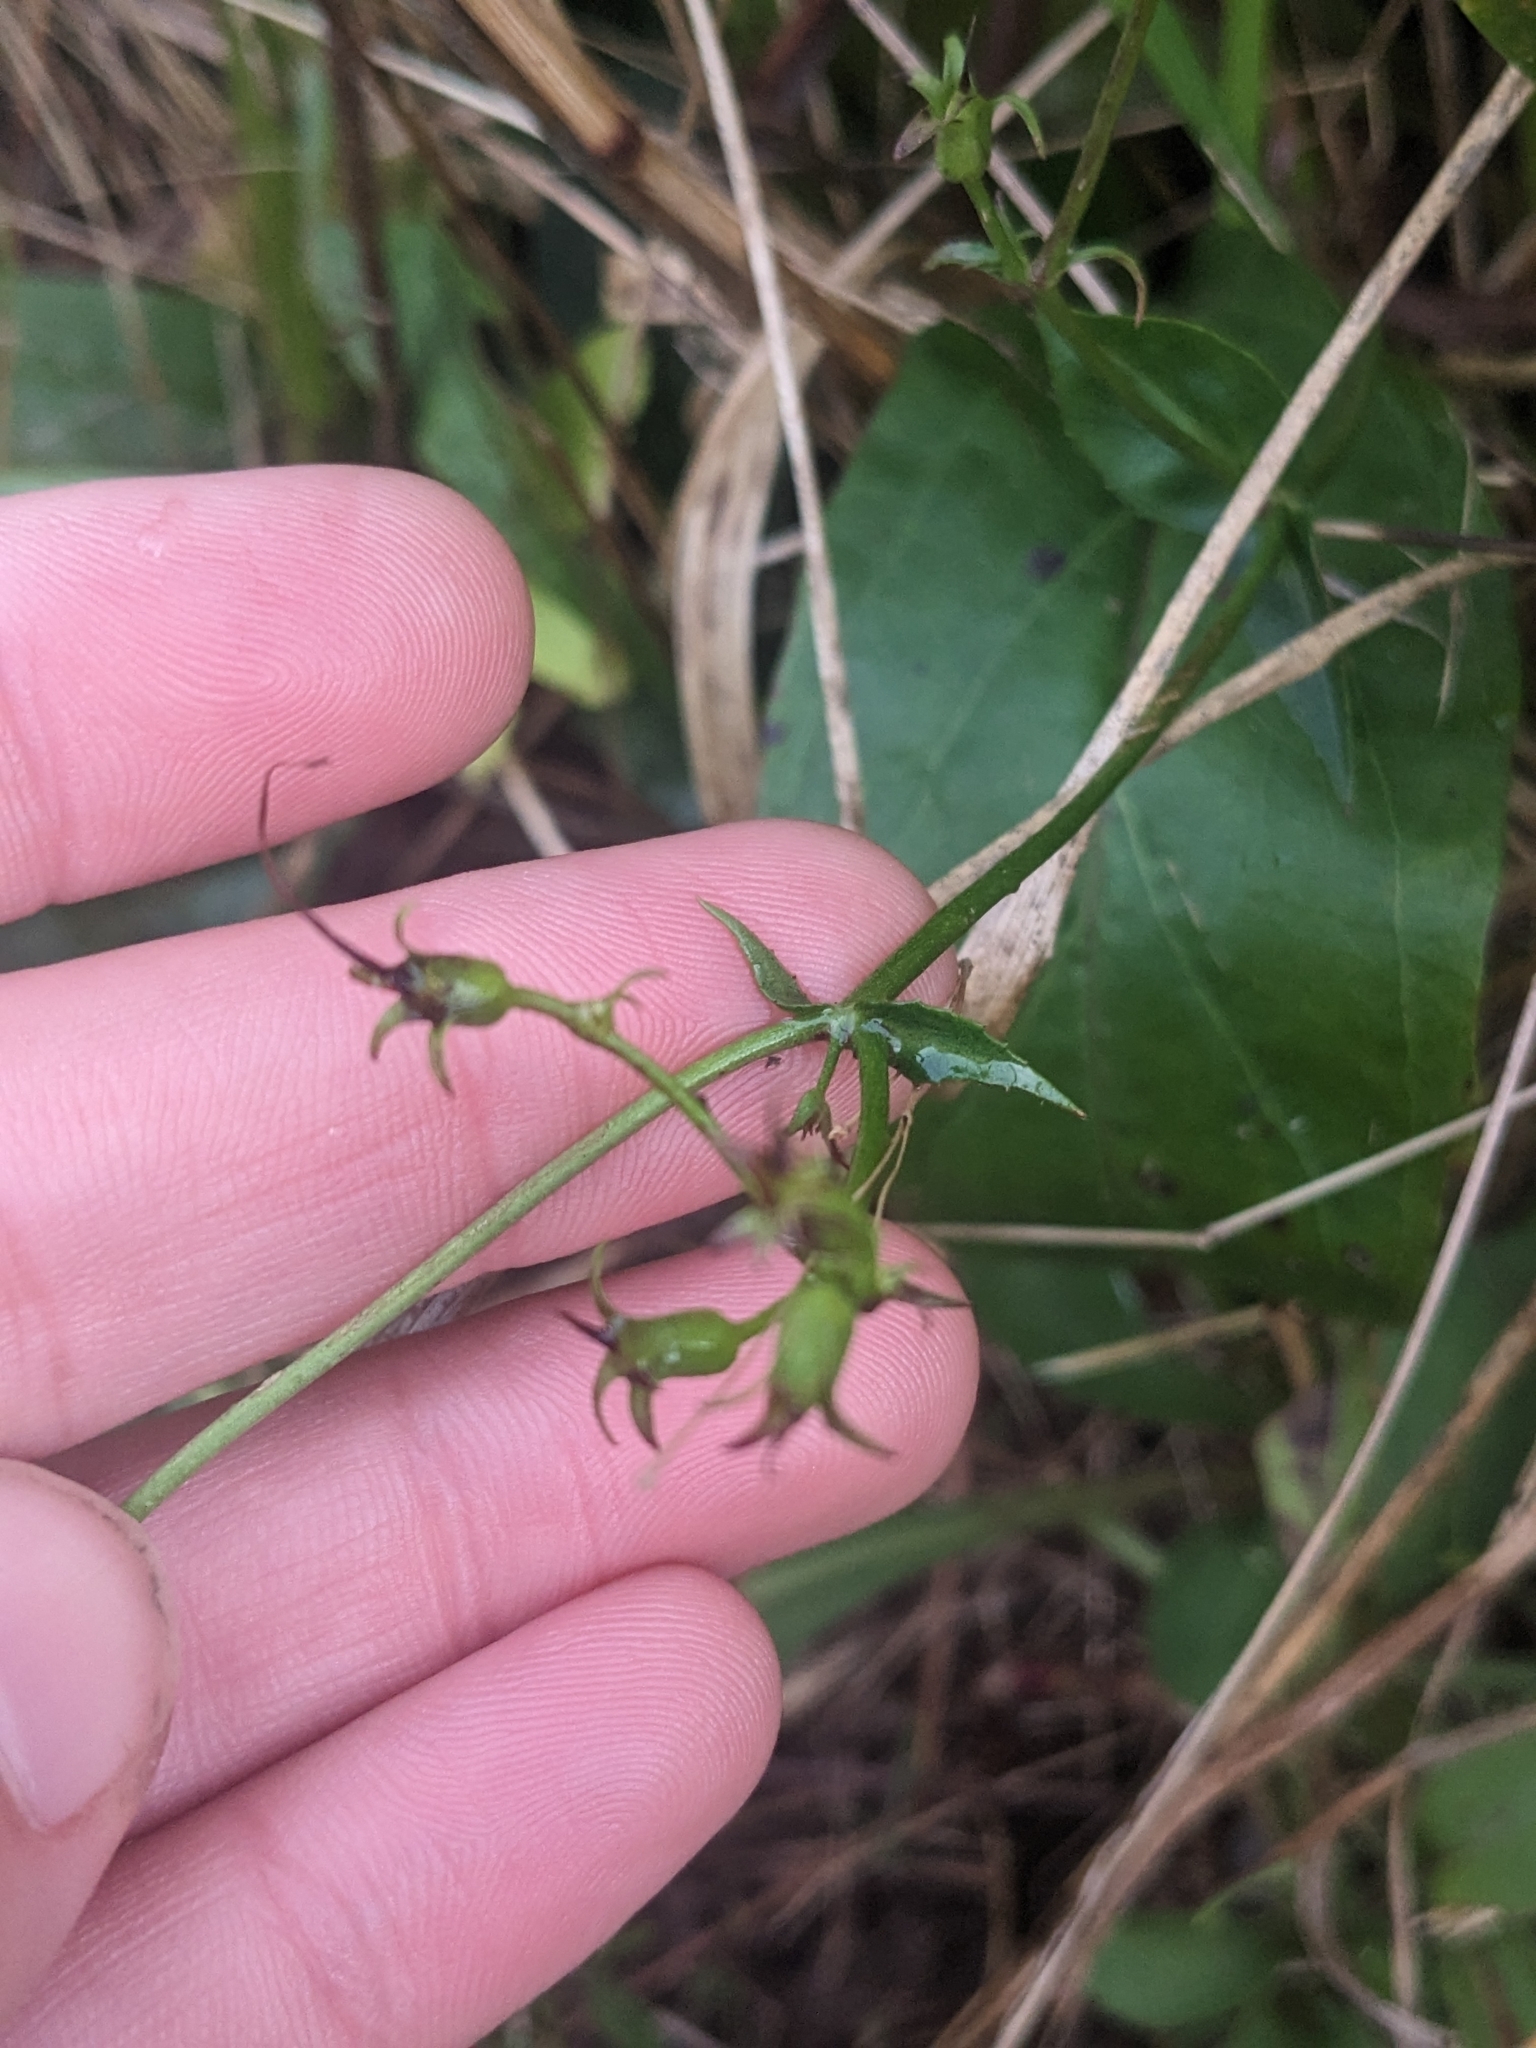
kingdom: Plantae
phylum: Tracheophyta
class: Magnoliopsida
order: Lamiales
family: Plantaginaceae
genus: Penstemon
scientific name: Penstemon digitalis
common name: Foxglove beardtongue
